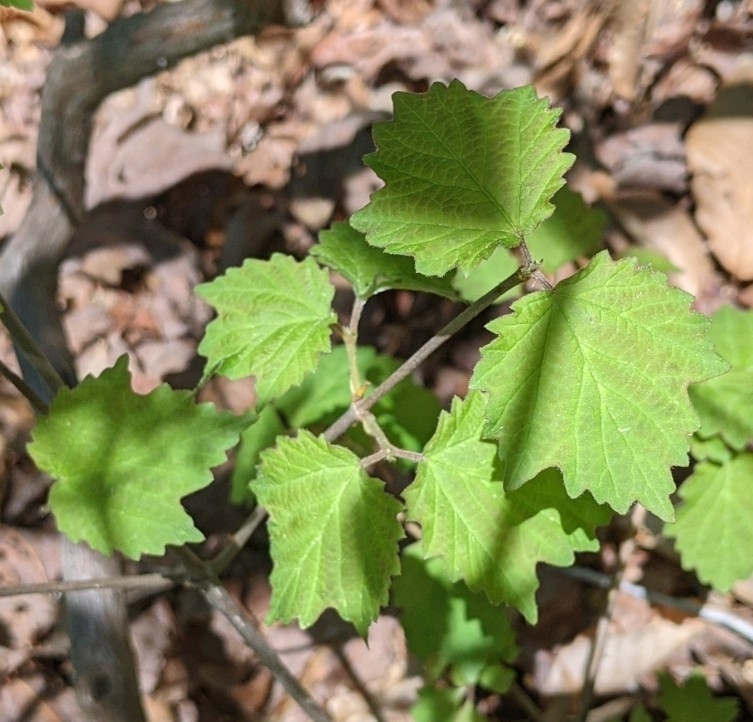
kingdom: Plantae
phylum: Tracheophyta
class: Magnoliopsida
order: Dipsacales
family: Viburnaceae
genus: Viburnum
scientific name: Viburnum acerifolium
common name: Dockmackie
